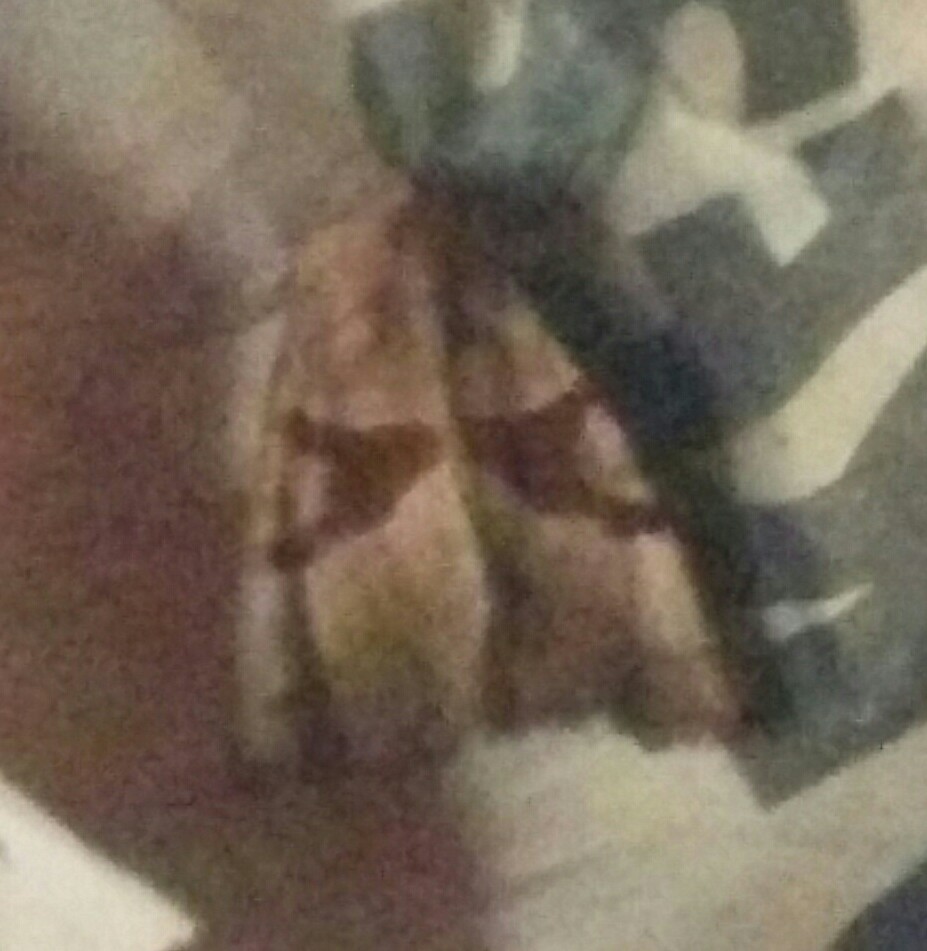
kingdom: Animalia
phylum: Arthropoda
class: Insecta
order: Lepidoptera
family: Noctuidae
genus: Phlogophora
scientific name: Phlogophora periculosa
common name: Brown angle shades
